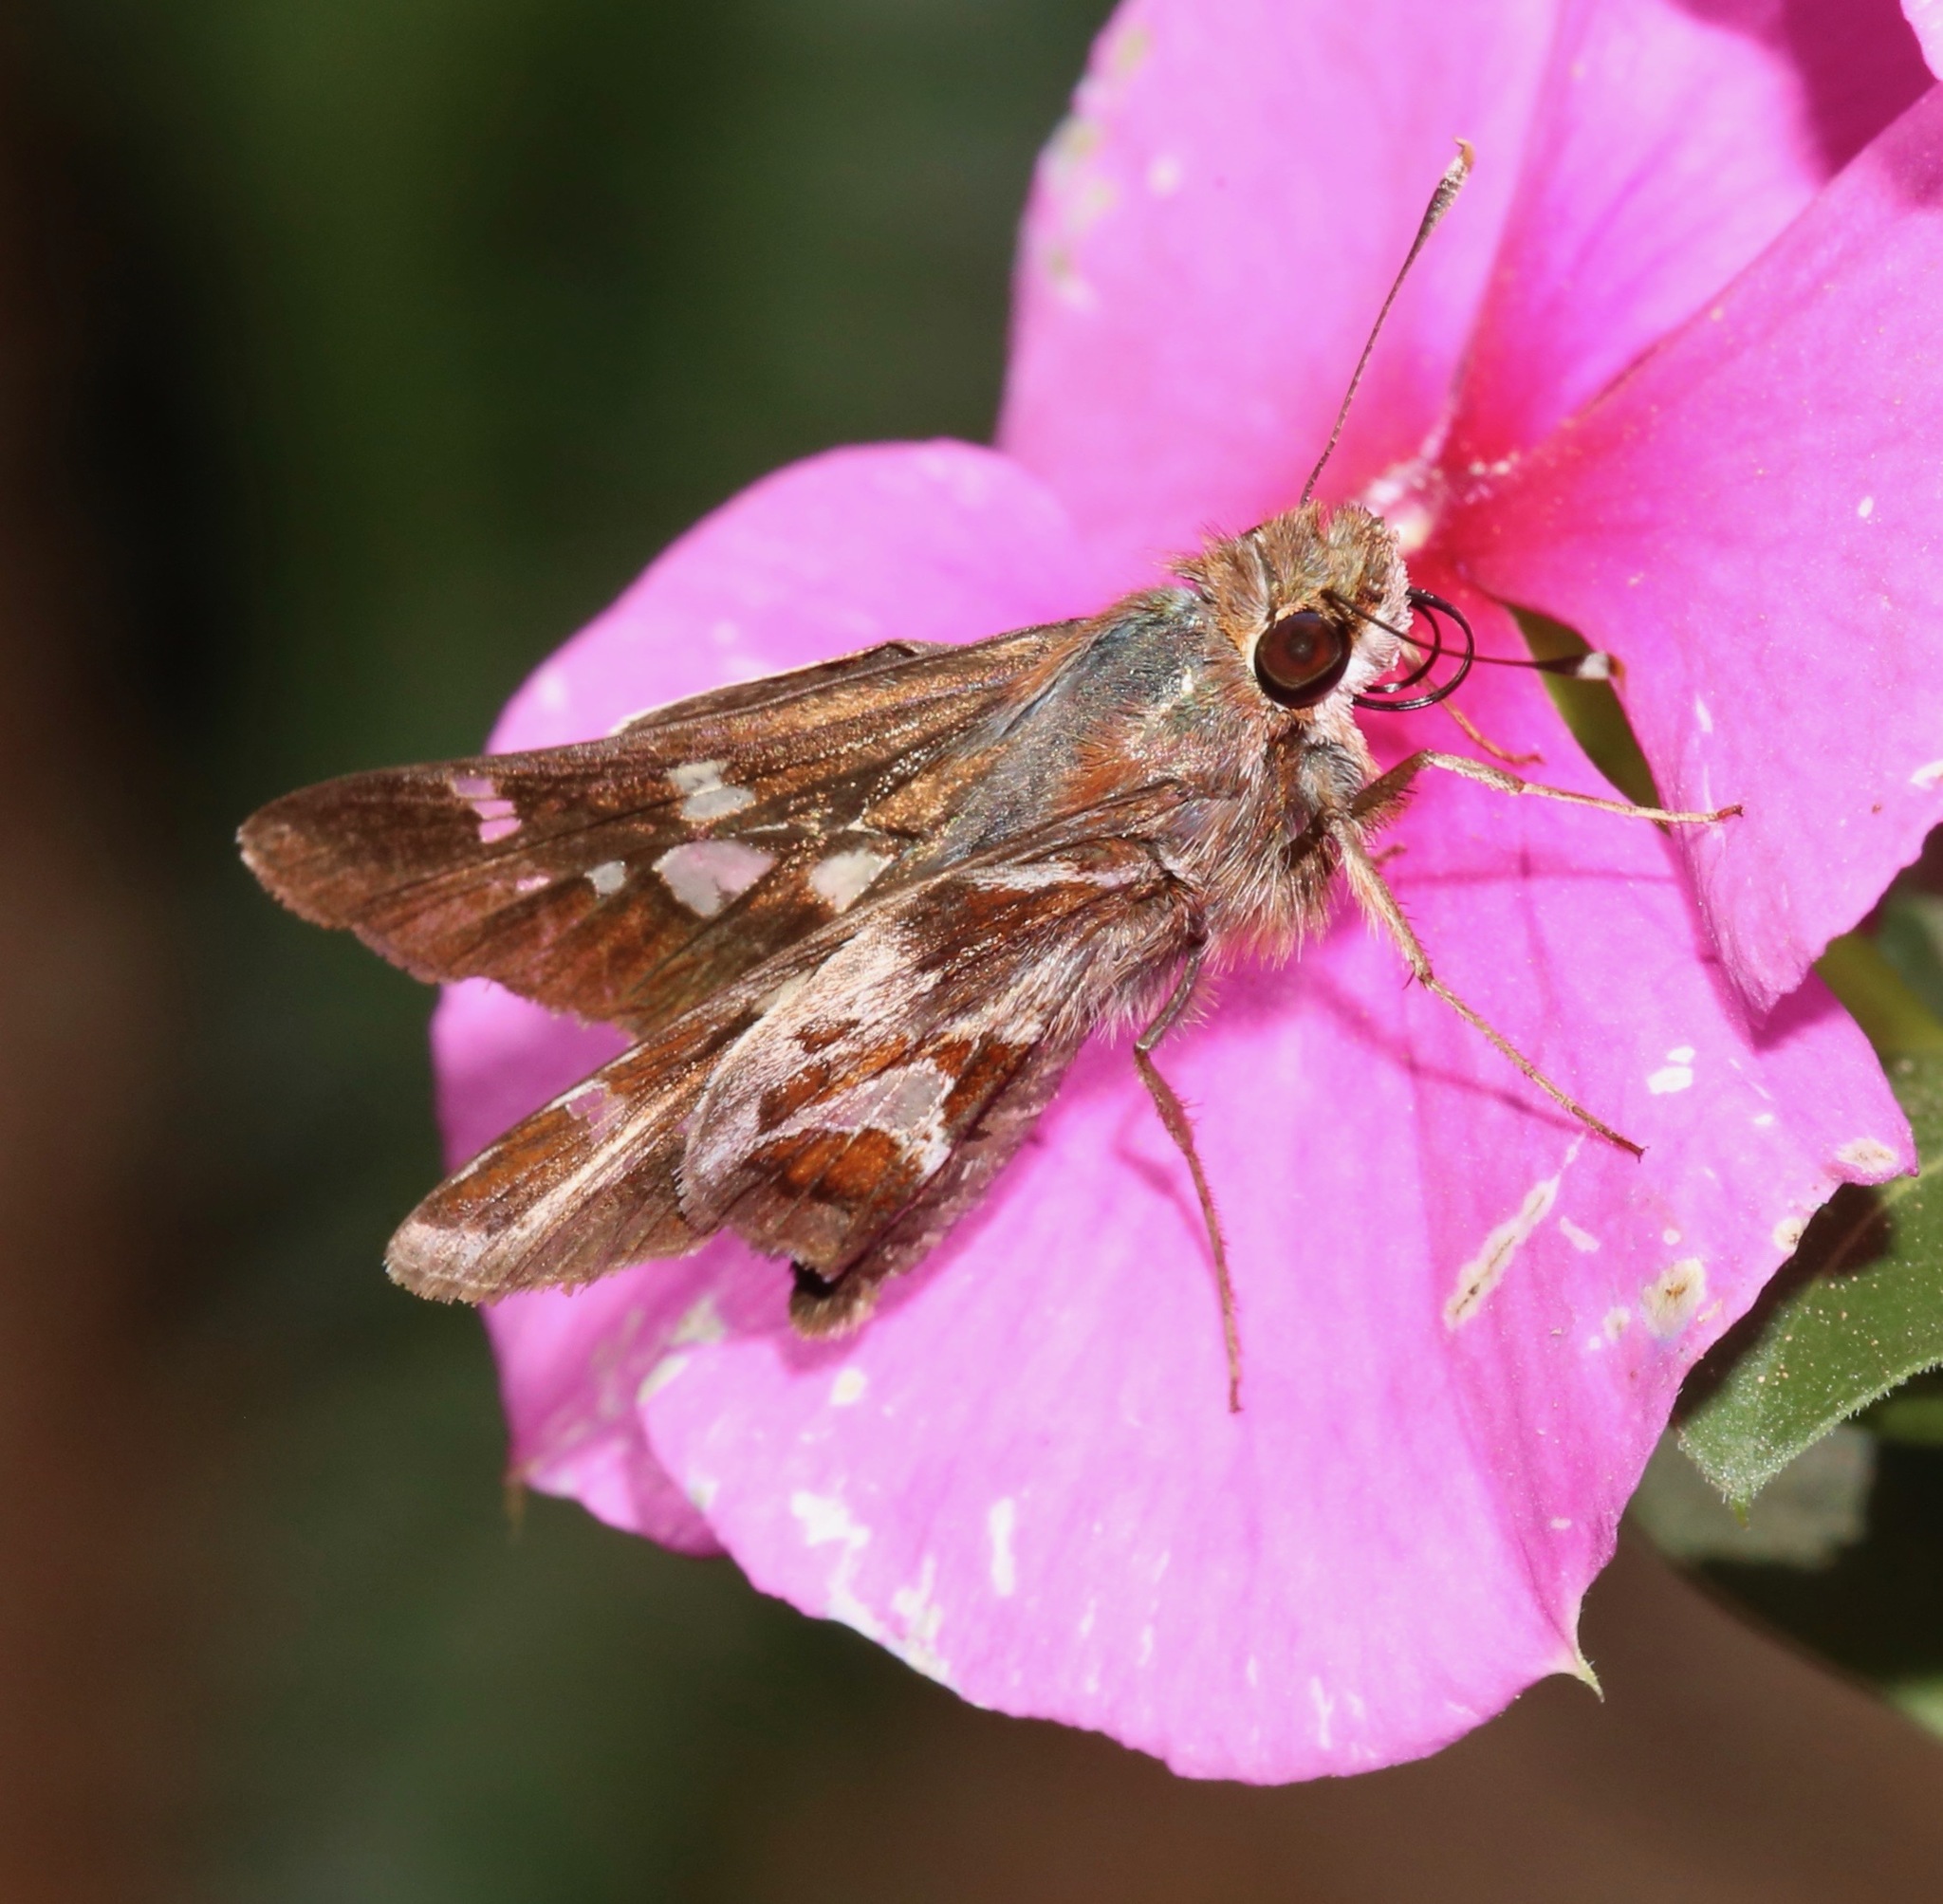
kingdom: Animalia
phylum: Arthropoda
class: Insecta
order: Lepidoptera
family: Hesperiidae
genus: Thespieus
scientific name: Thespieus macareus
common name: Chestnut-marked skipper
